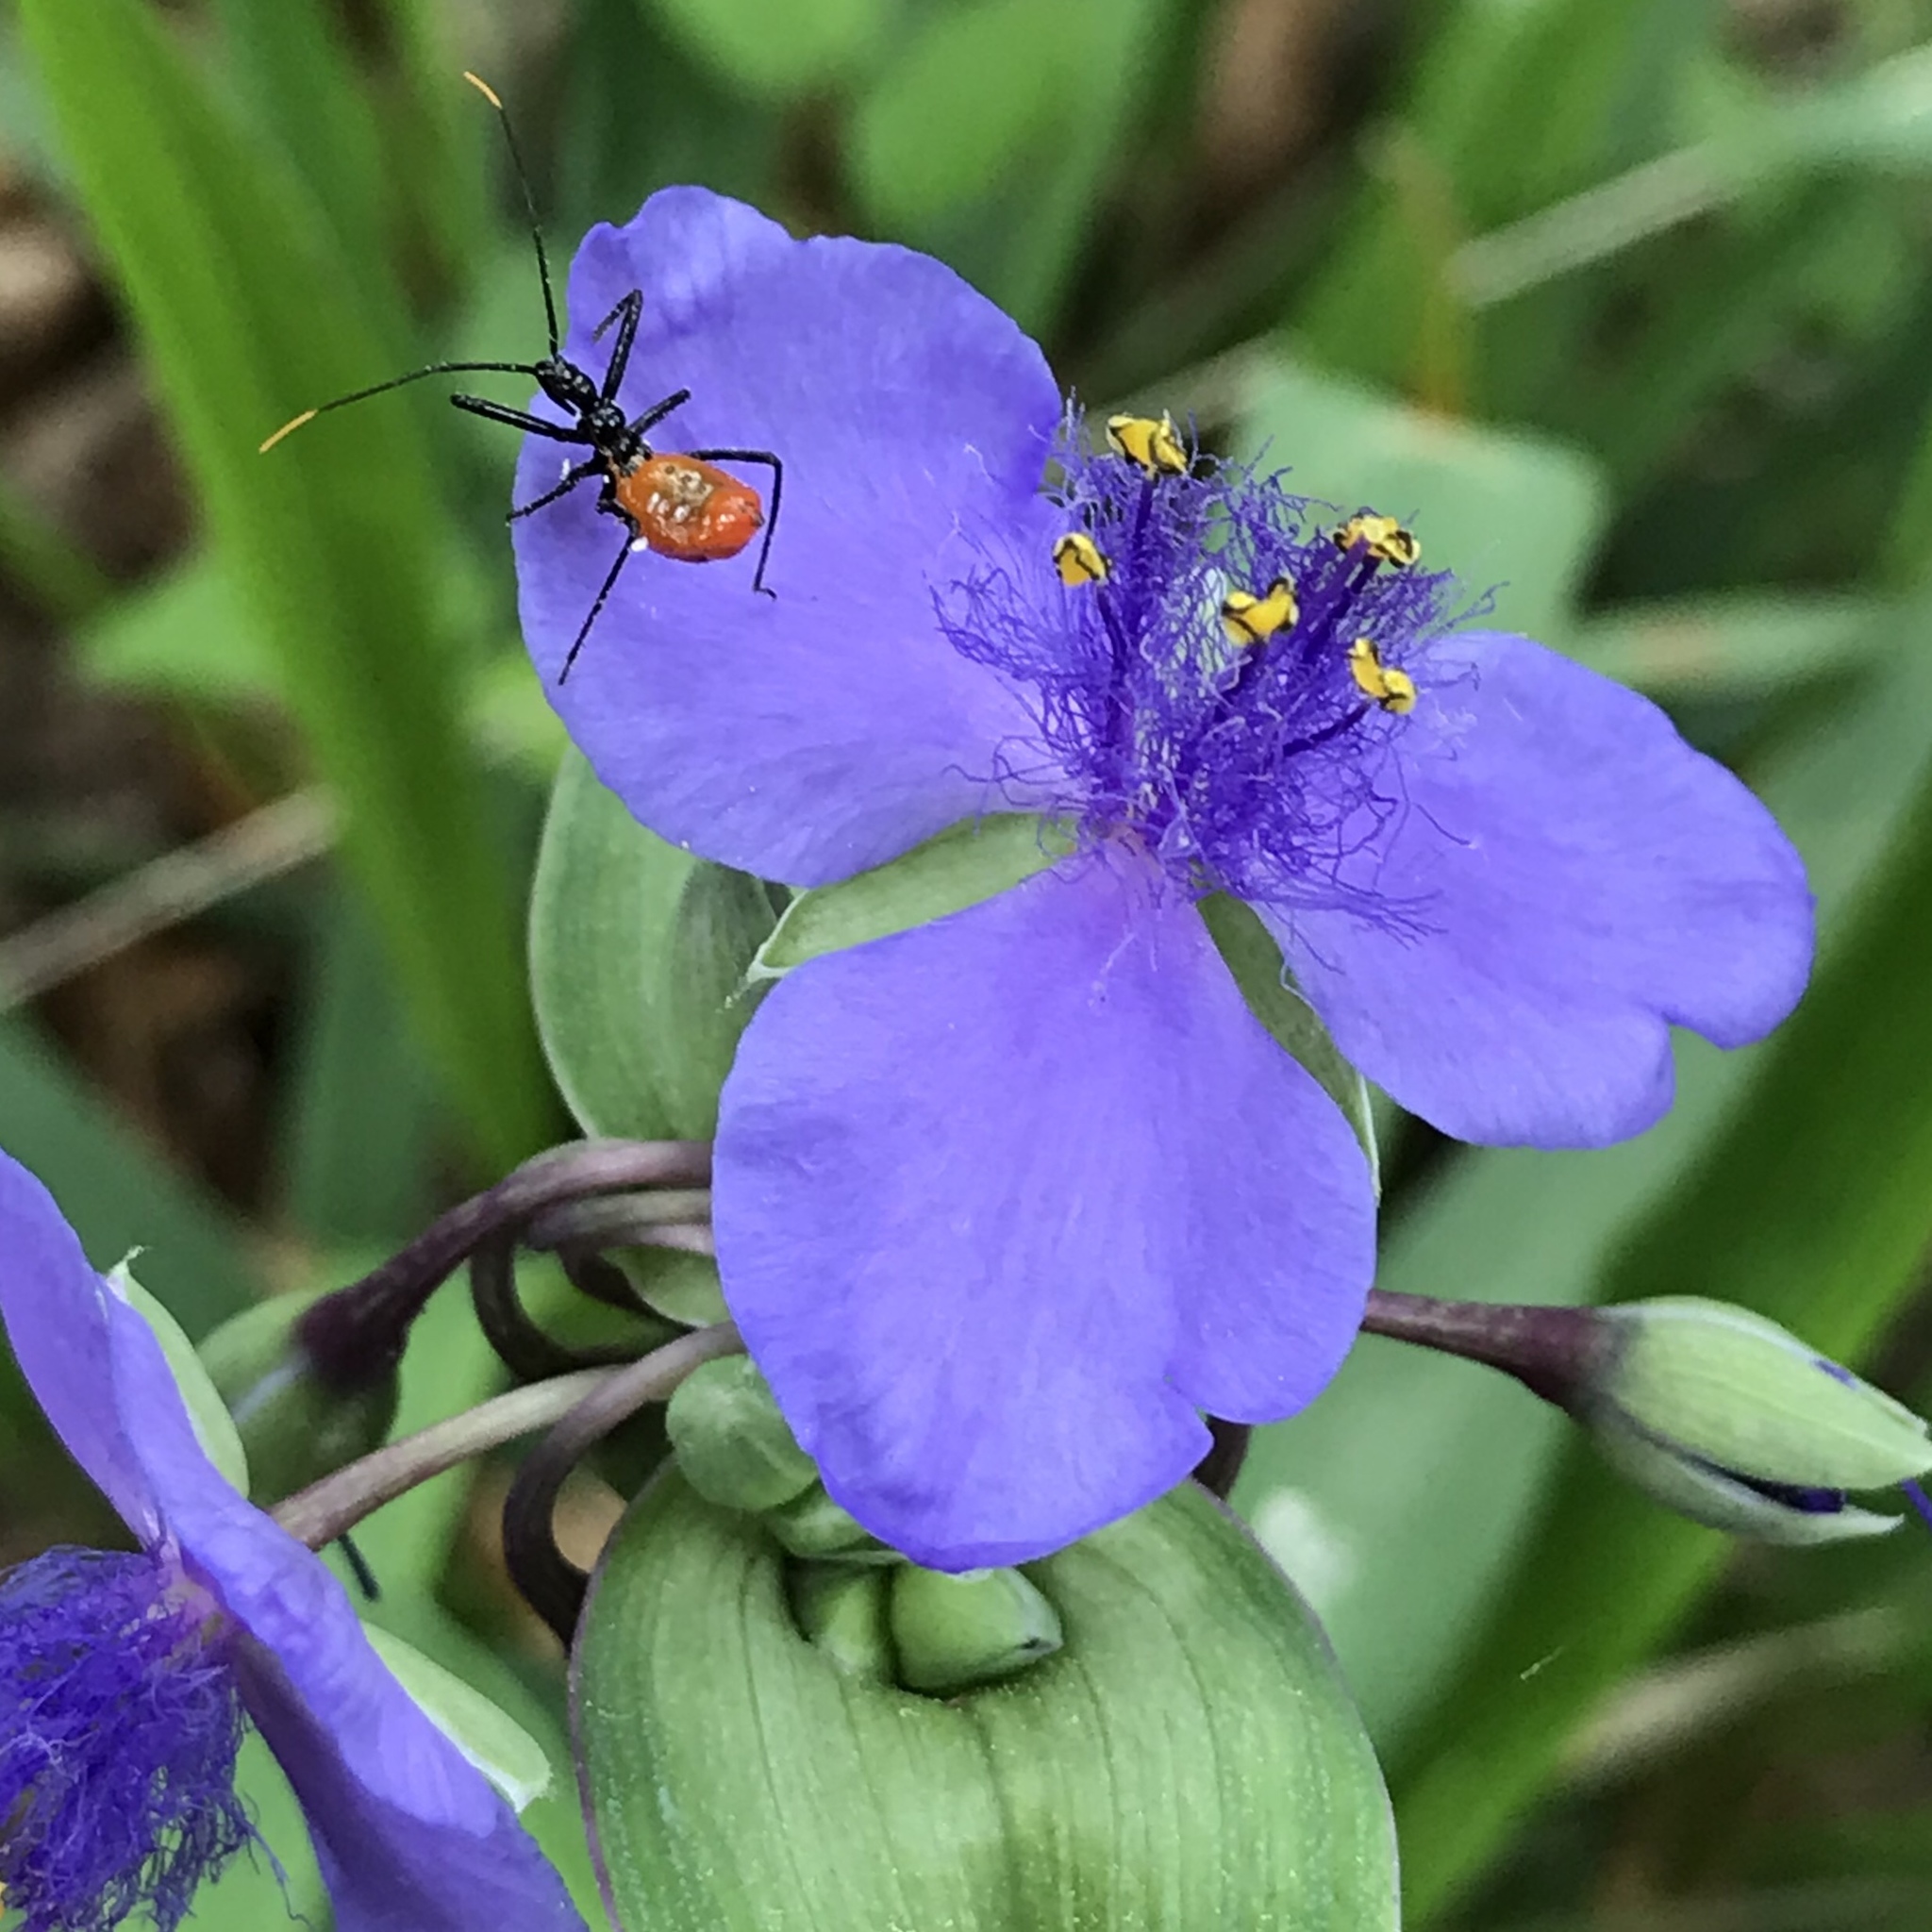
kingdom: Animalia
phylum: Arthropoda
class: Insecta
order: Hemiptera
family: Reduviidae
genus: Arilus
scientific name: Arilus cristatus
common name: North american wheel bug
